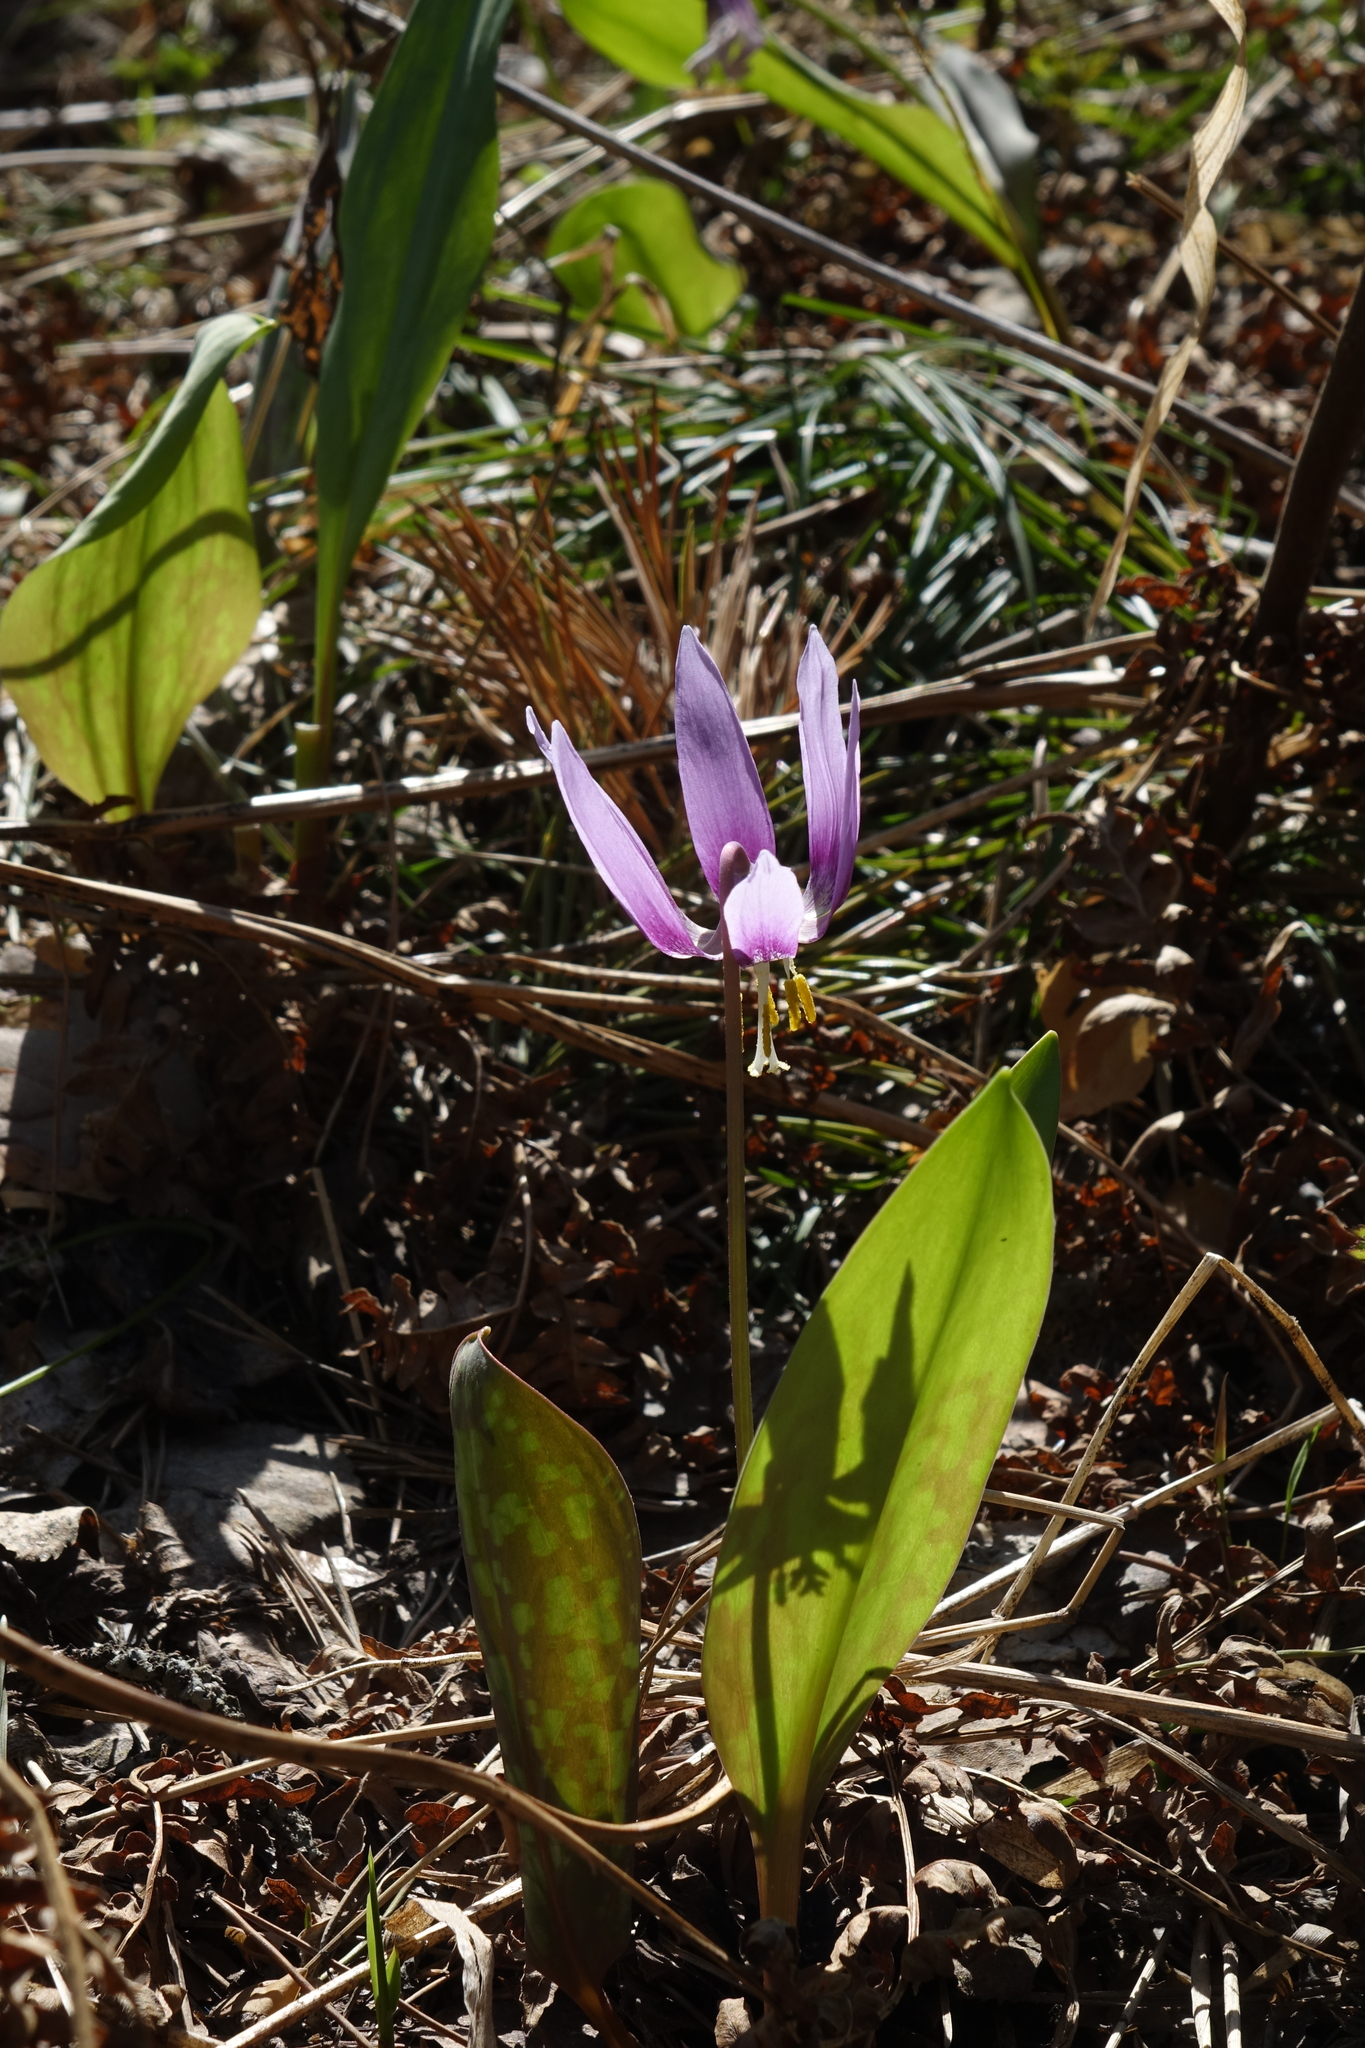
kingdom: Plantae
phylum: Tracheophyta
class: Liliopsida
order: Liliales
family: Liliaceae
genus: Erythronium
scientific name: Erythronium sibiricum
